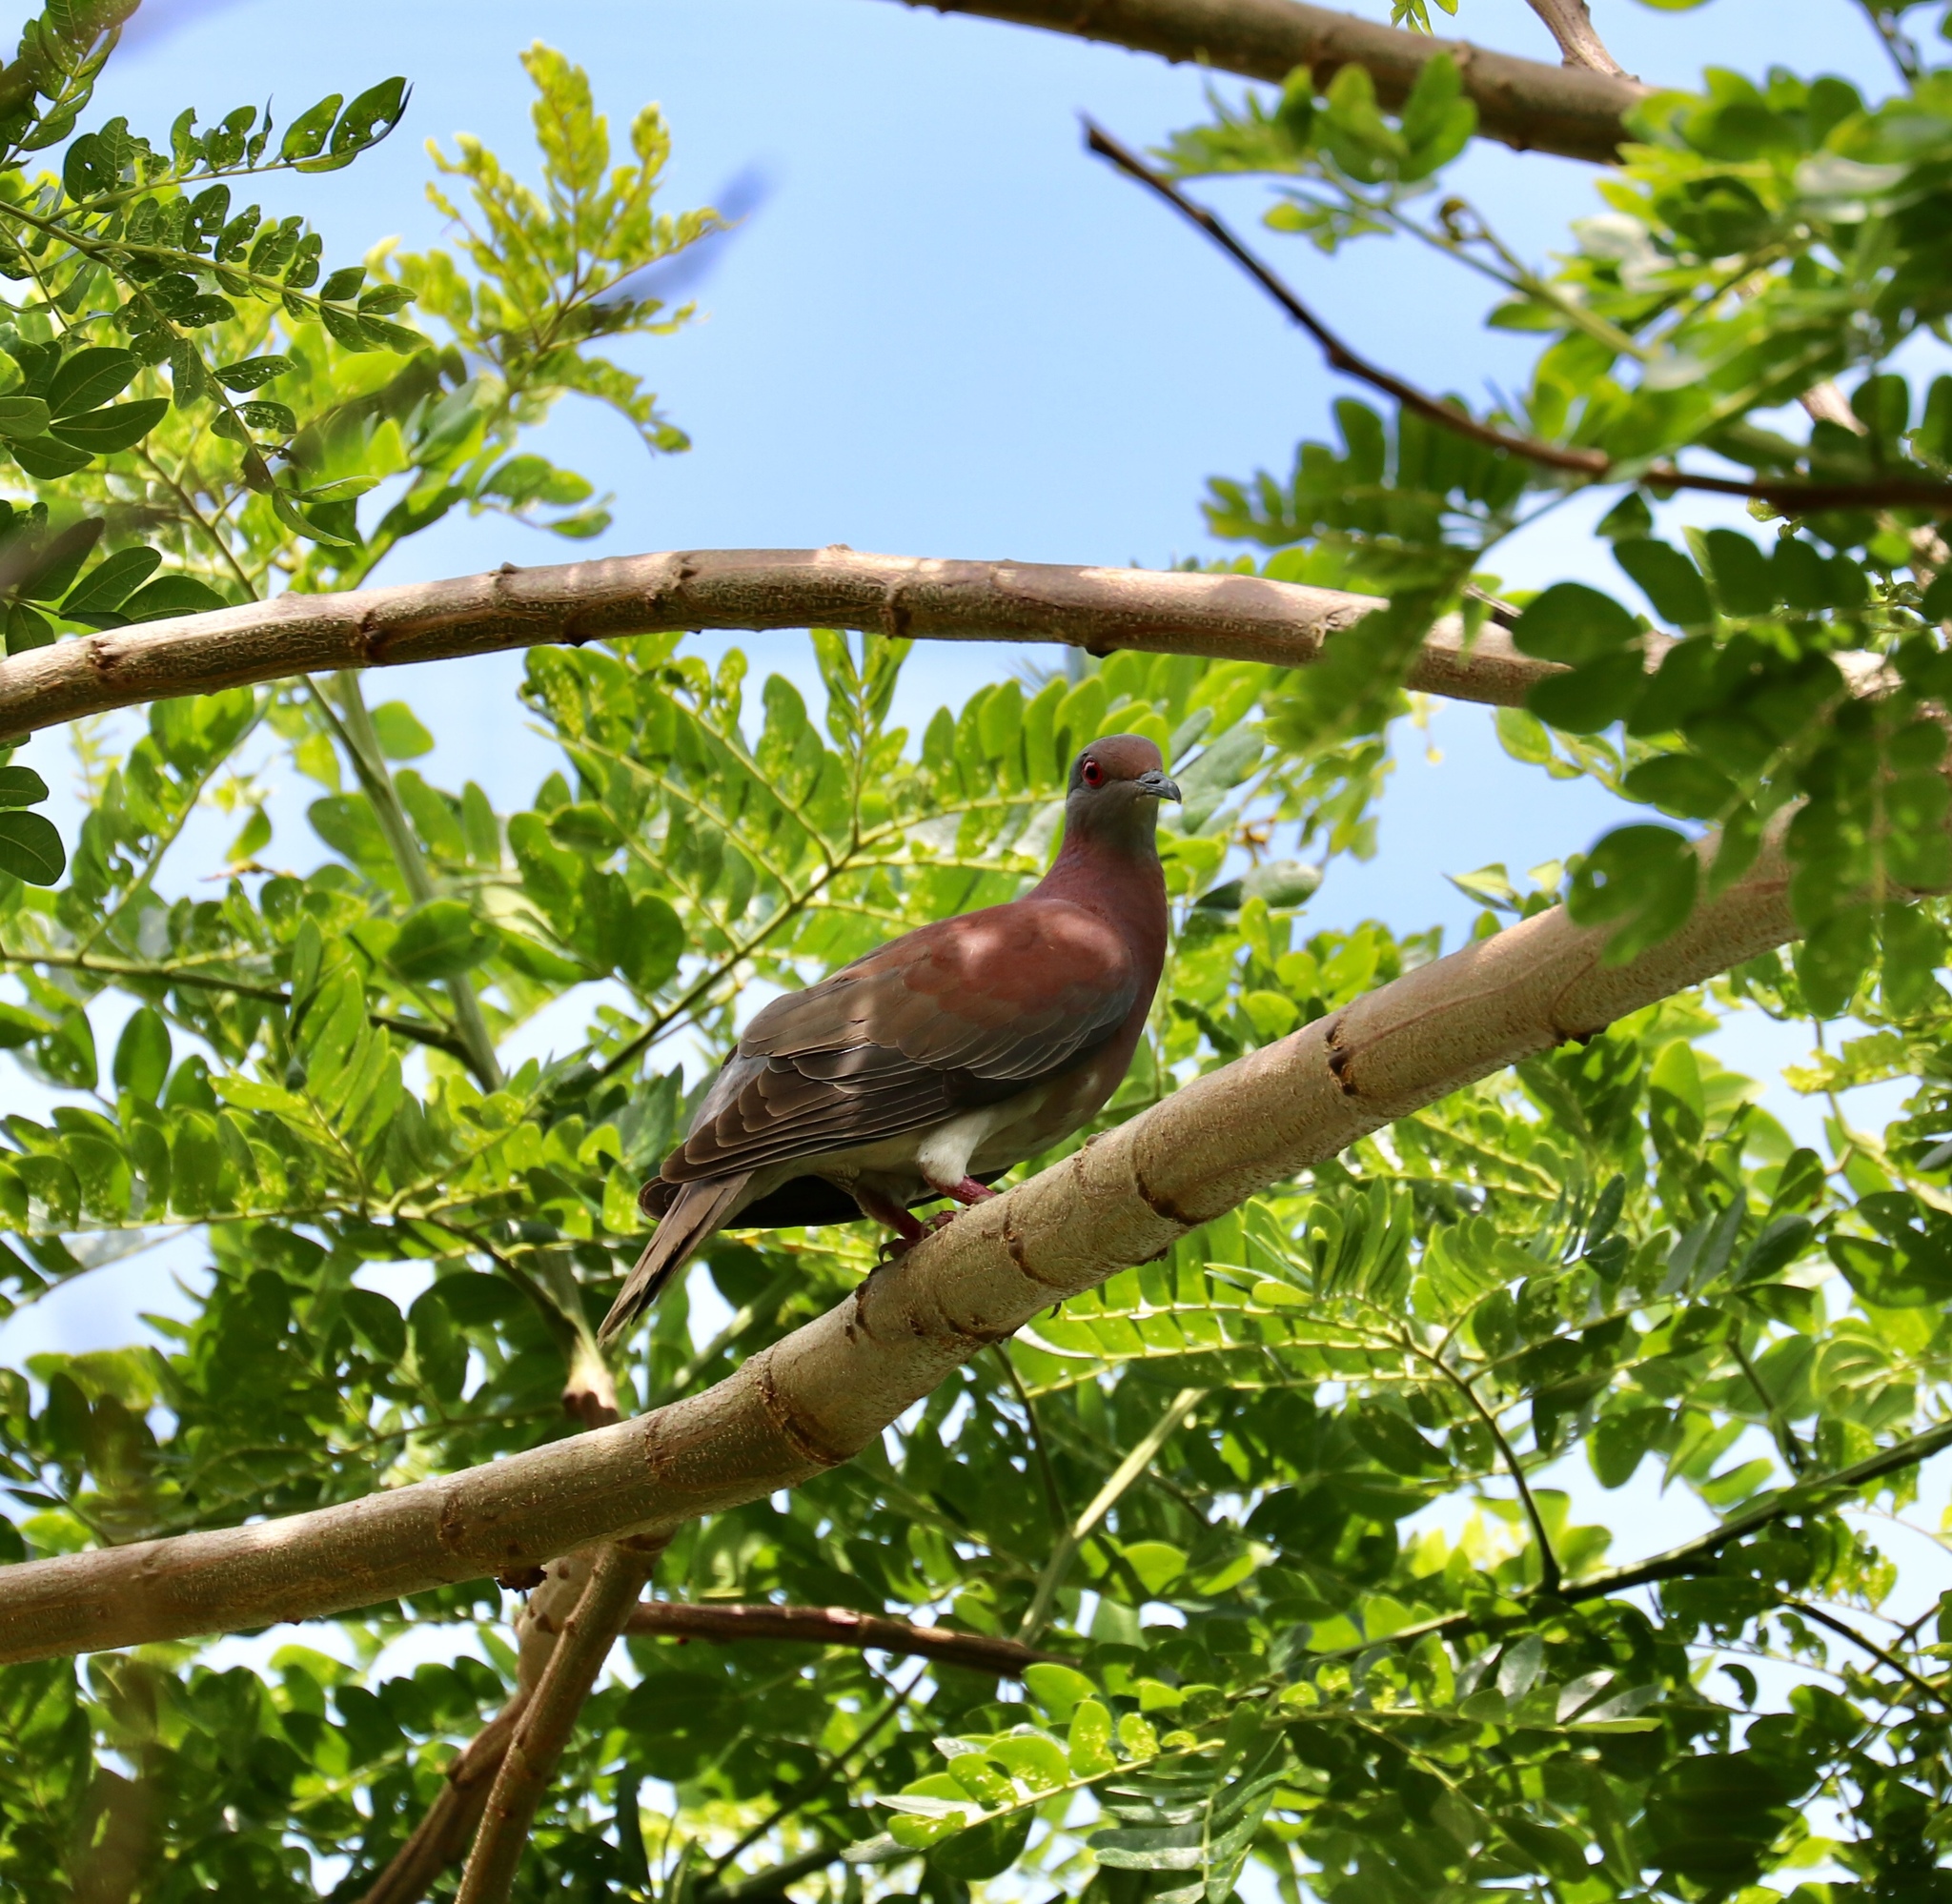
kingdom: Animalia
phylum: Chordata
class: Aves
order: Columbiformes
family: Columbidae
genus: Patagioenas
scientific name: Patagioenas cayennensis
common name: Pale-vented pigeon
